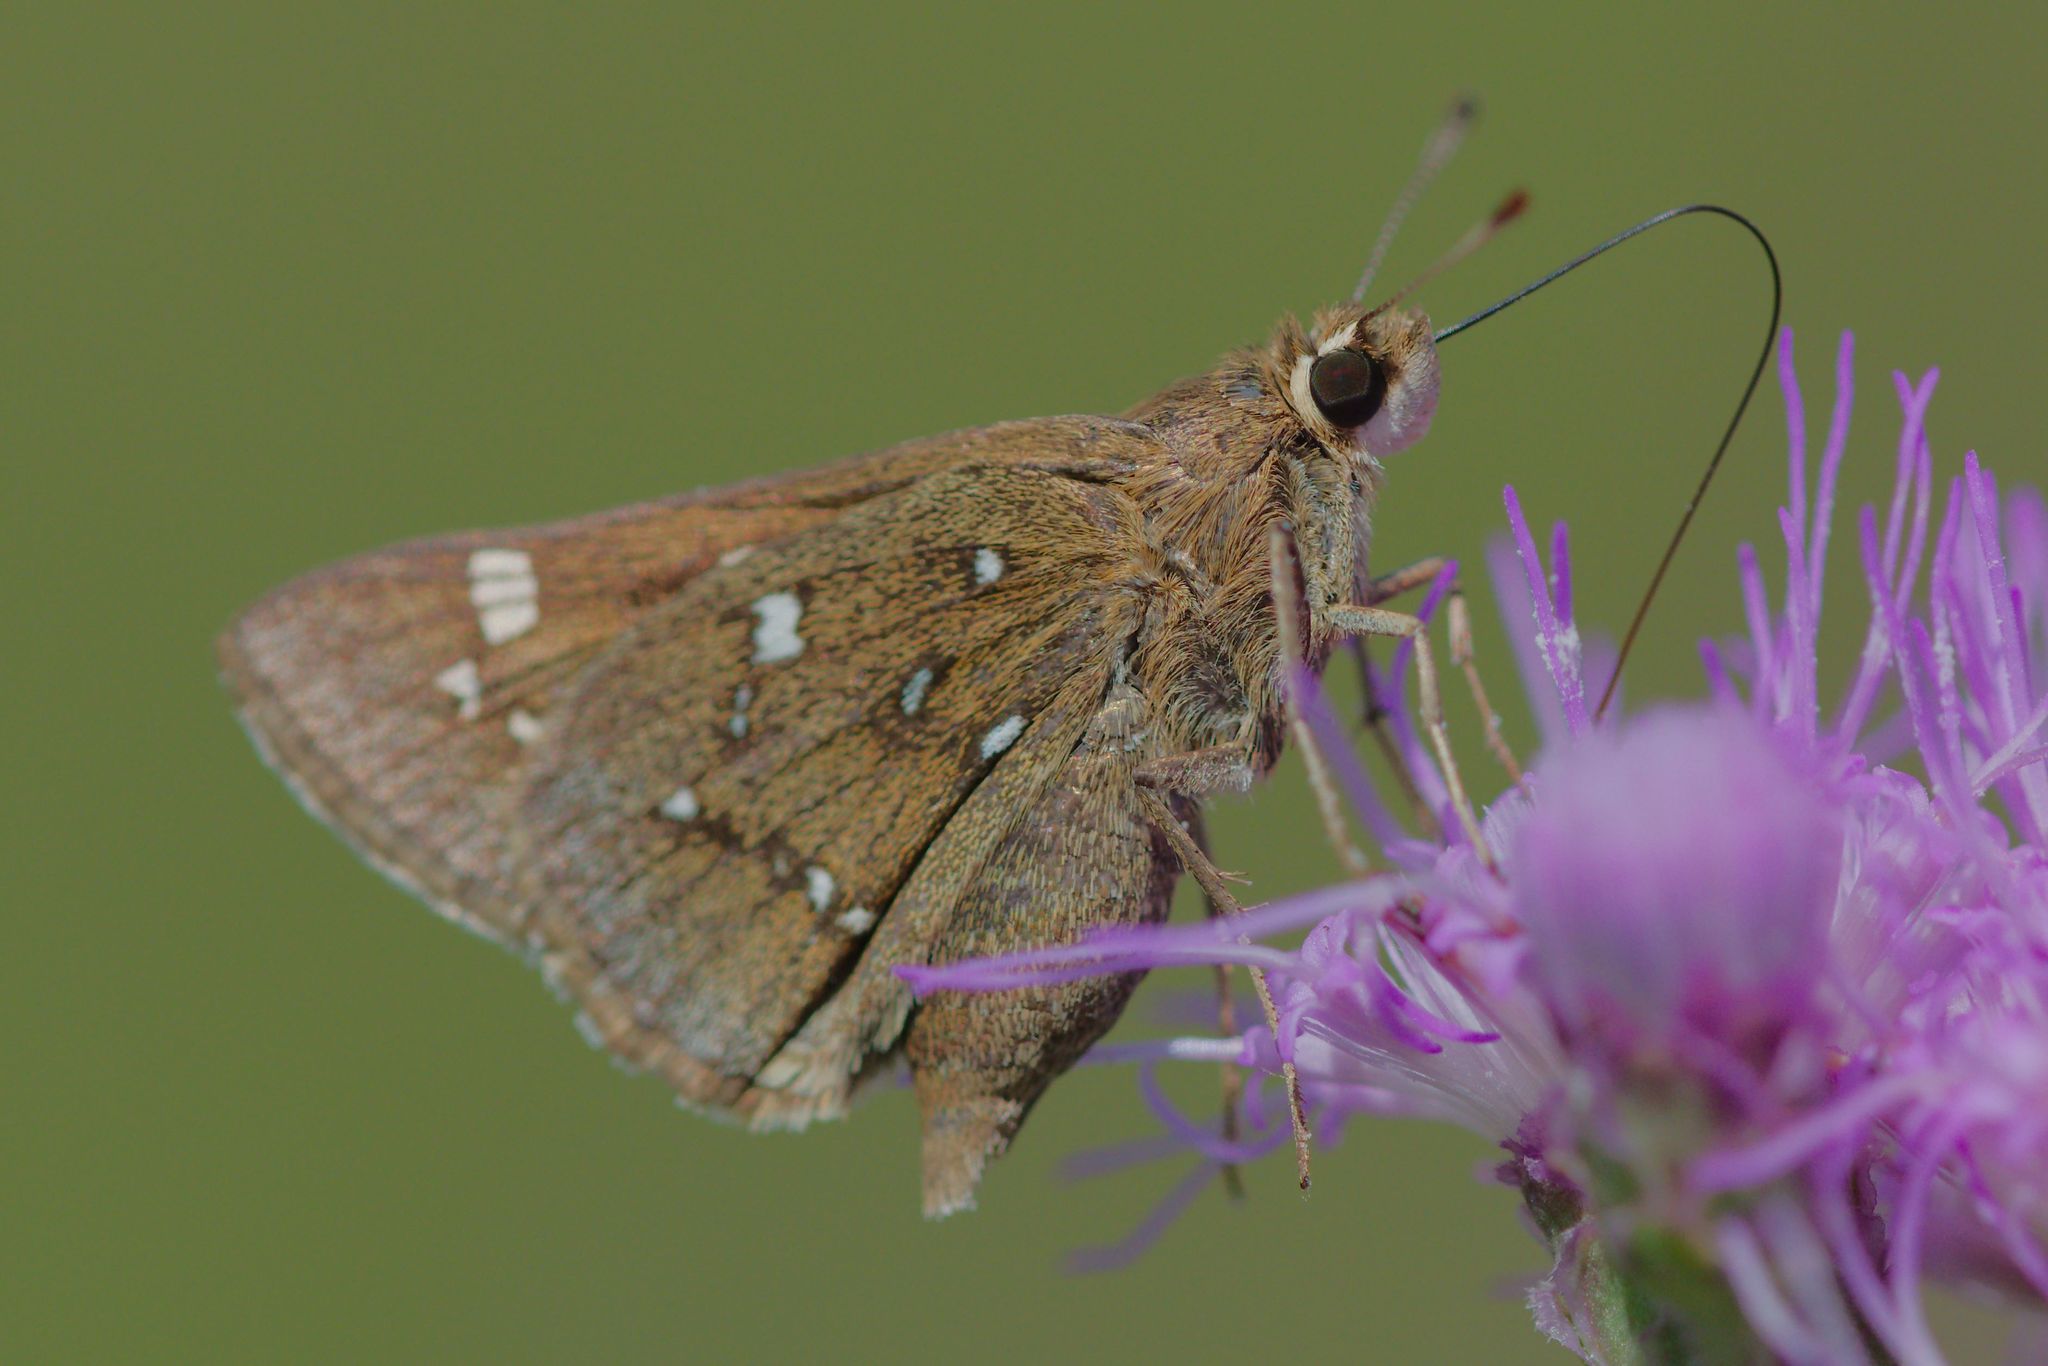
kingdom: Animalia
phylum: Arthropoda
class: Insecta
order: Lepidoptera
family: Hesperiidae
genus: Atrytonopsis
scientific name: Atrytonopsis loammi
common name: Loammi skipper
